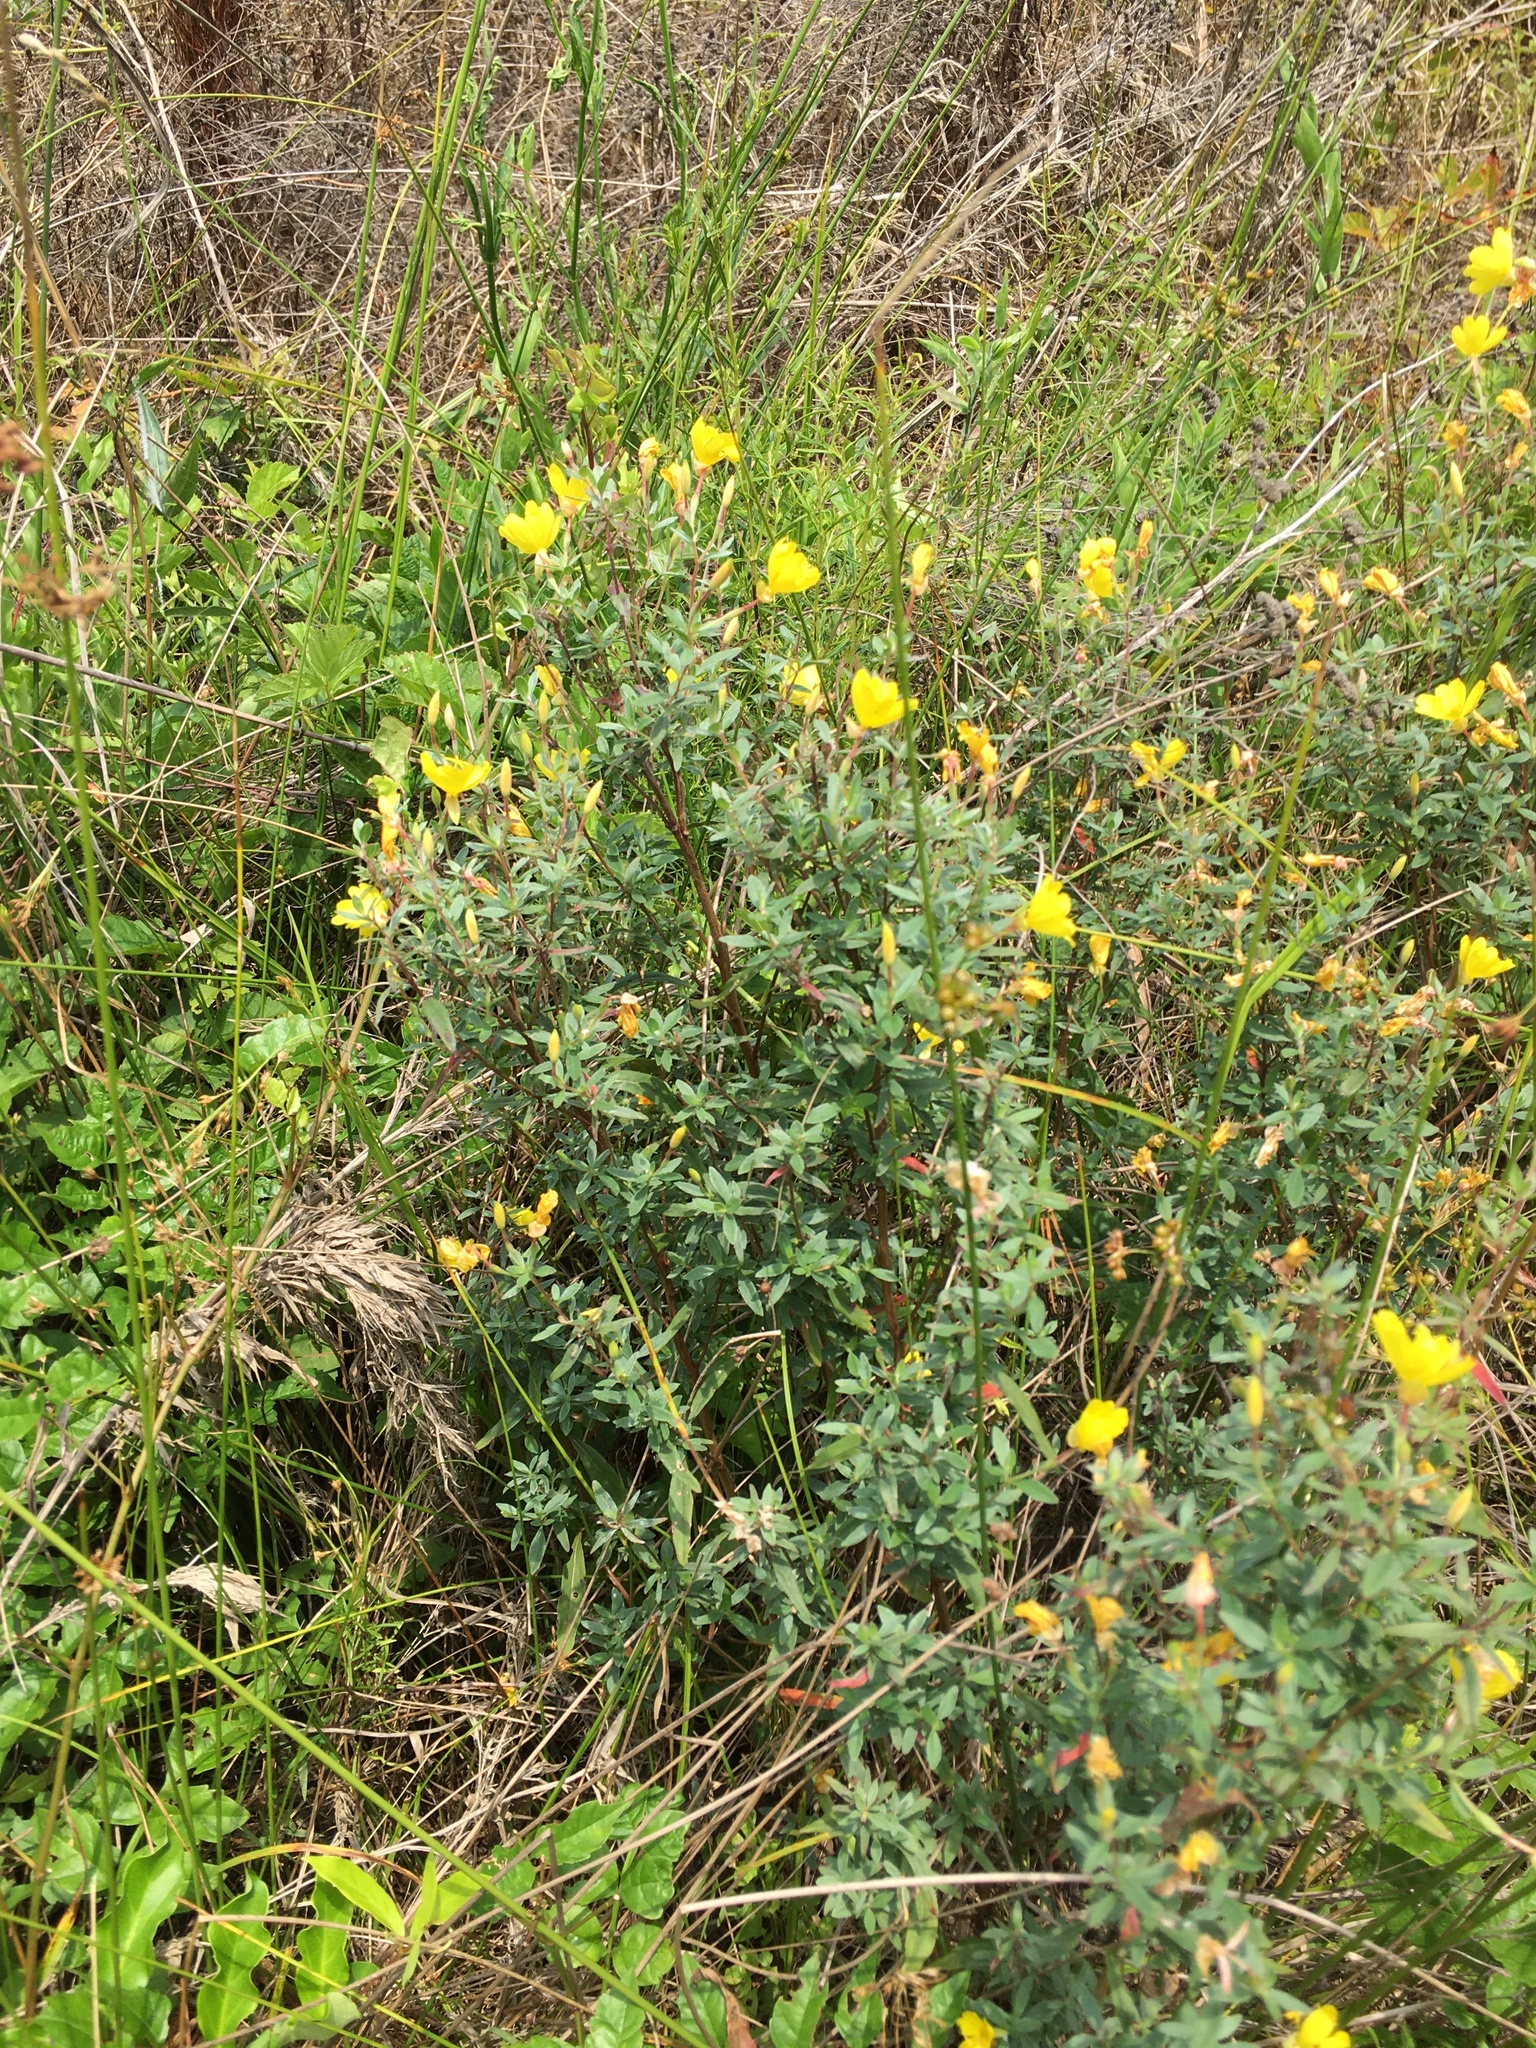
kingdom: Plantae
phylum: Tracheophyta
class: Magnoliopsida
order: Myrtales
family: Onagraceae
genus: Oenothera
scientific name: Oenothera fruticosa
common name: Southern sundrops
